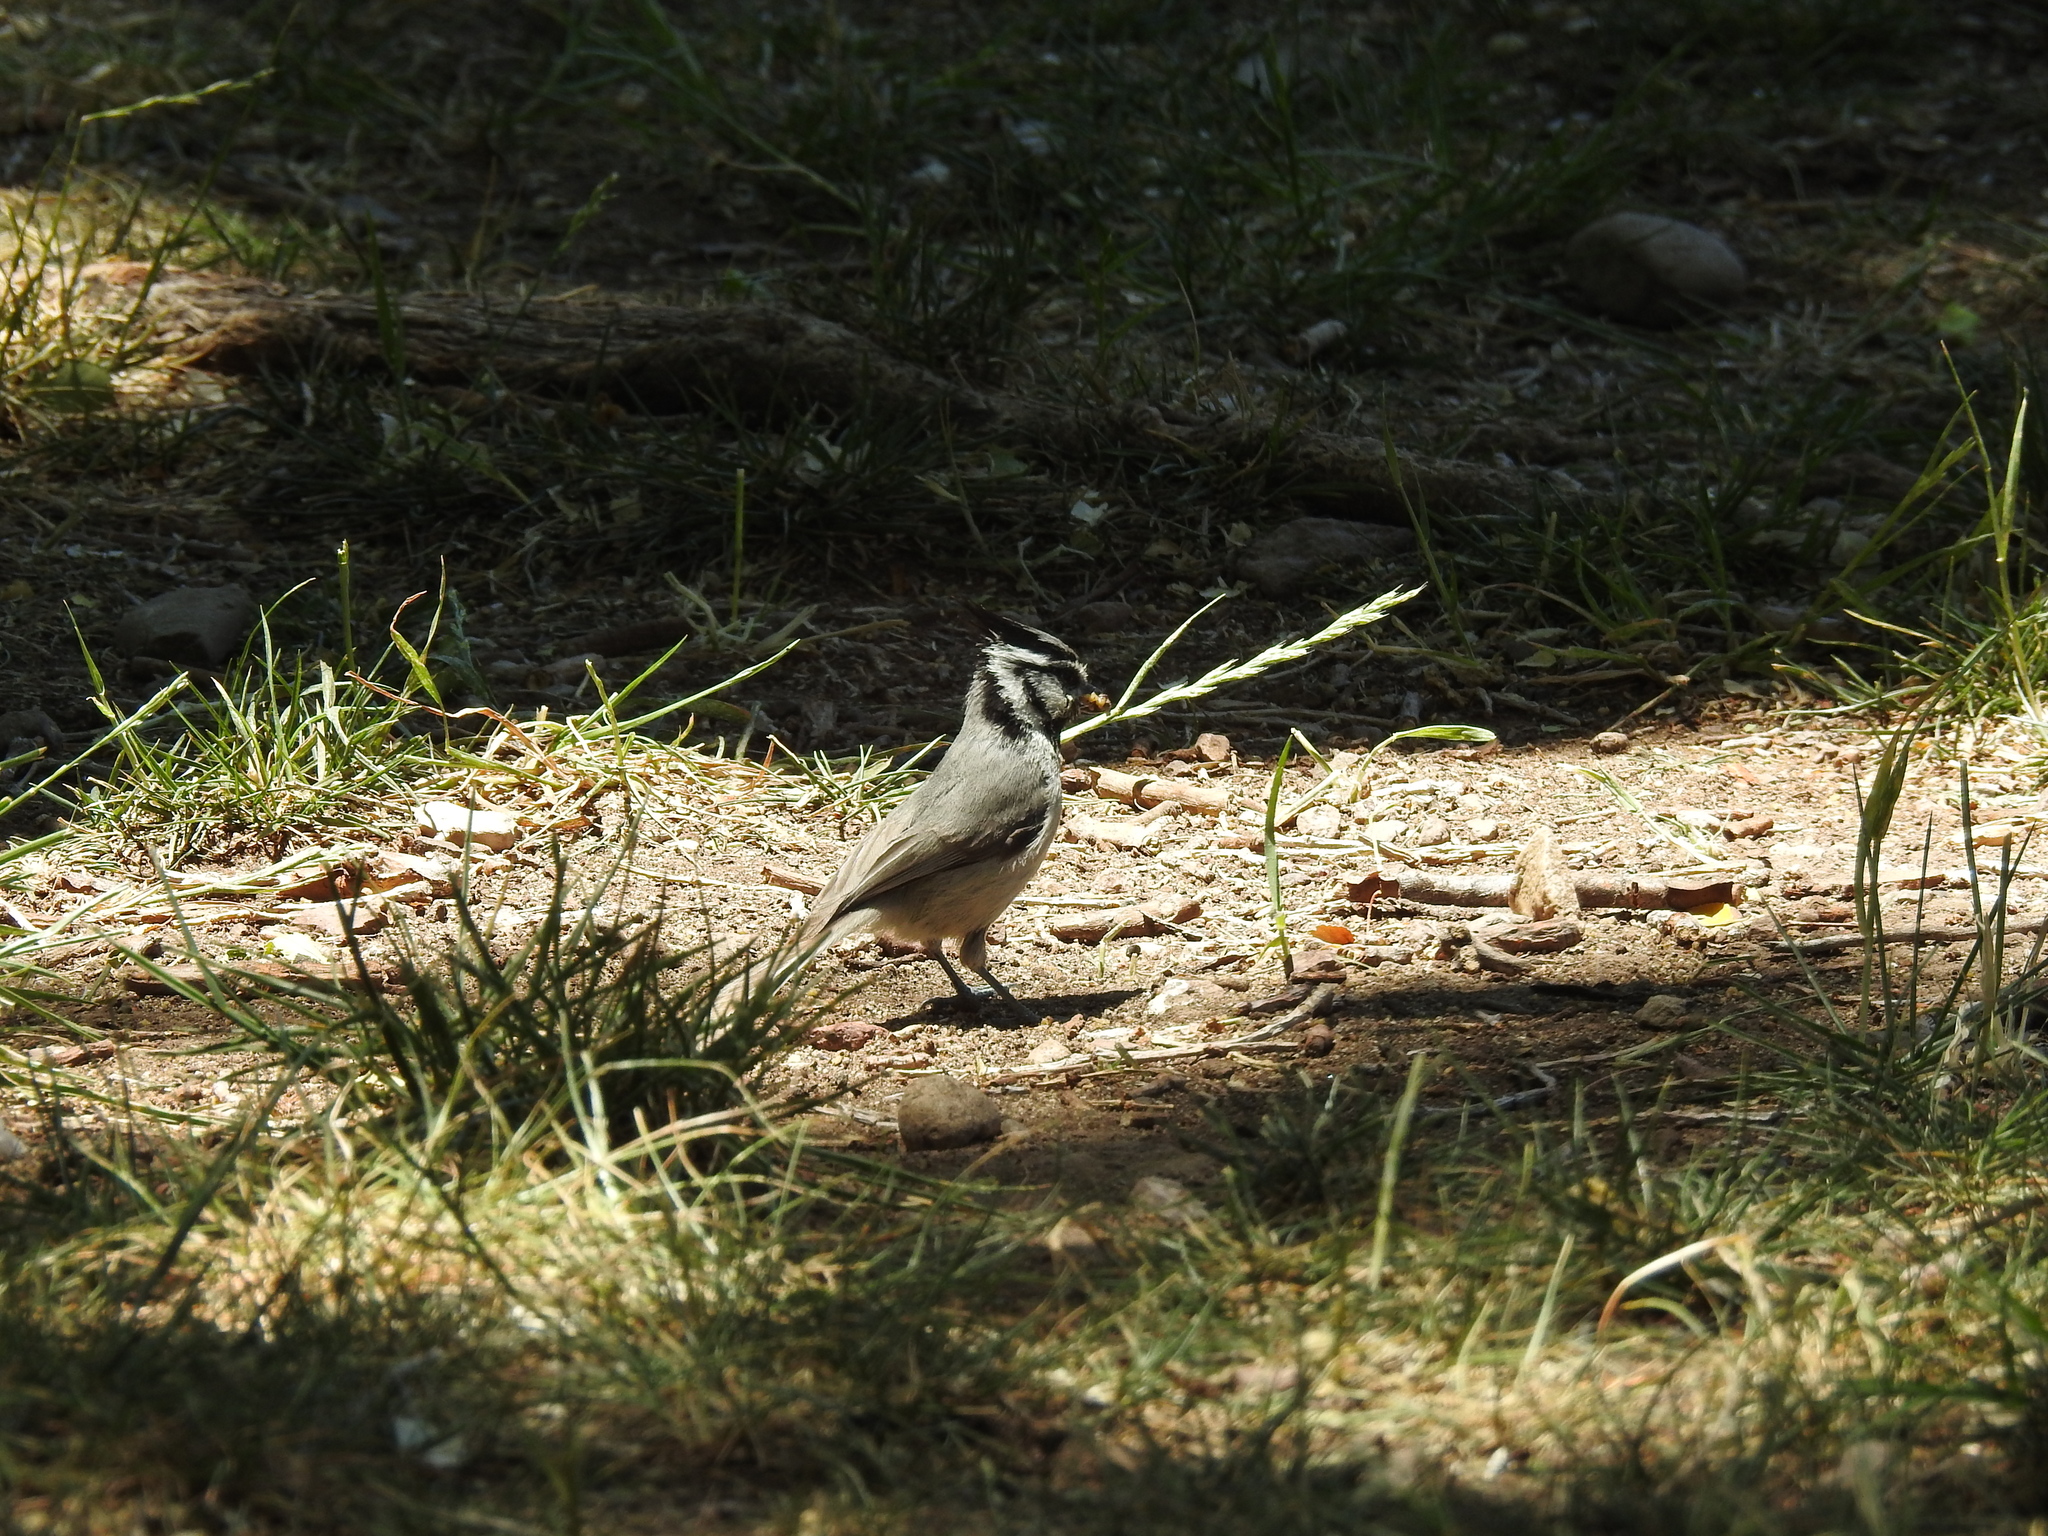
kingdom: Animalia
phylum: Chordata
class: Aves
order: Passeriformes
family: Paridae
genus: Baeolophus
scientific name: Baeolophus wollweberi
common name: Bridled titmouse
